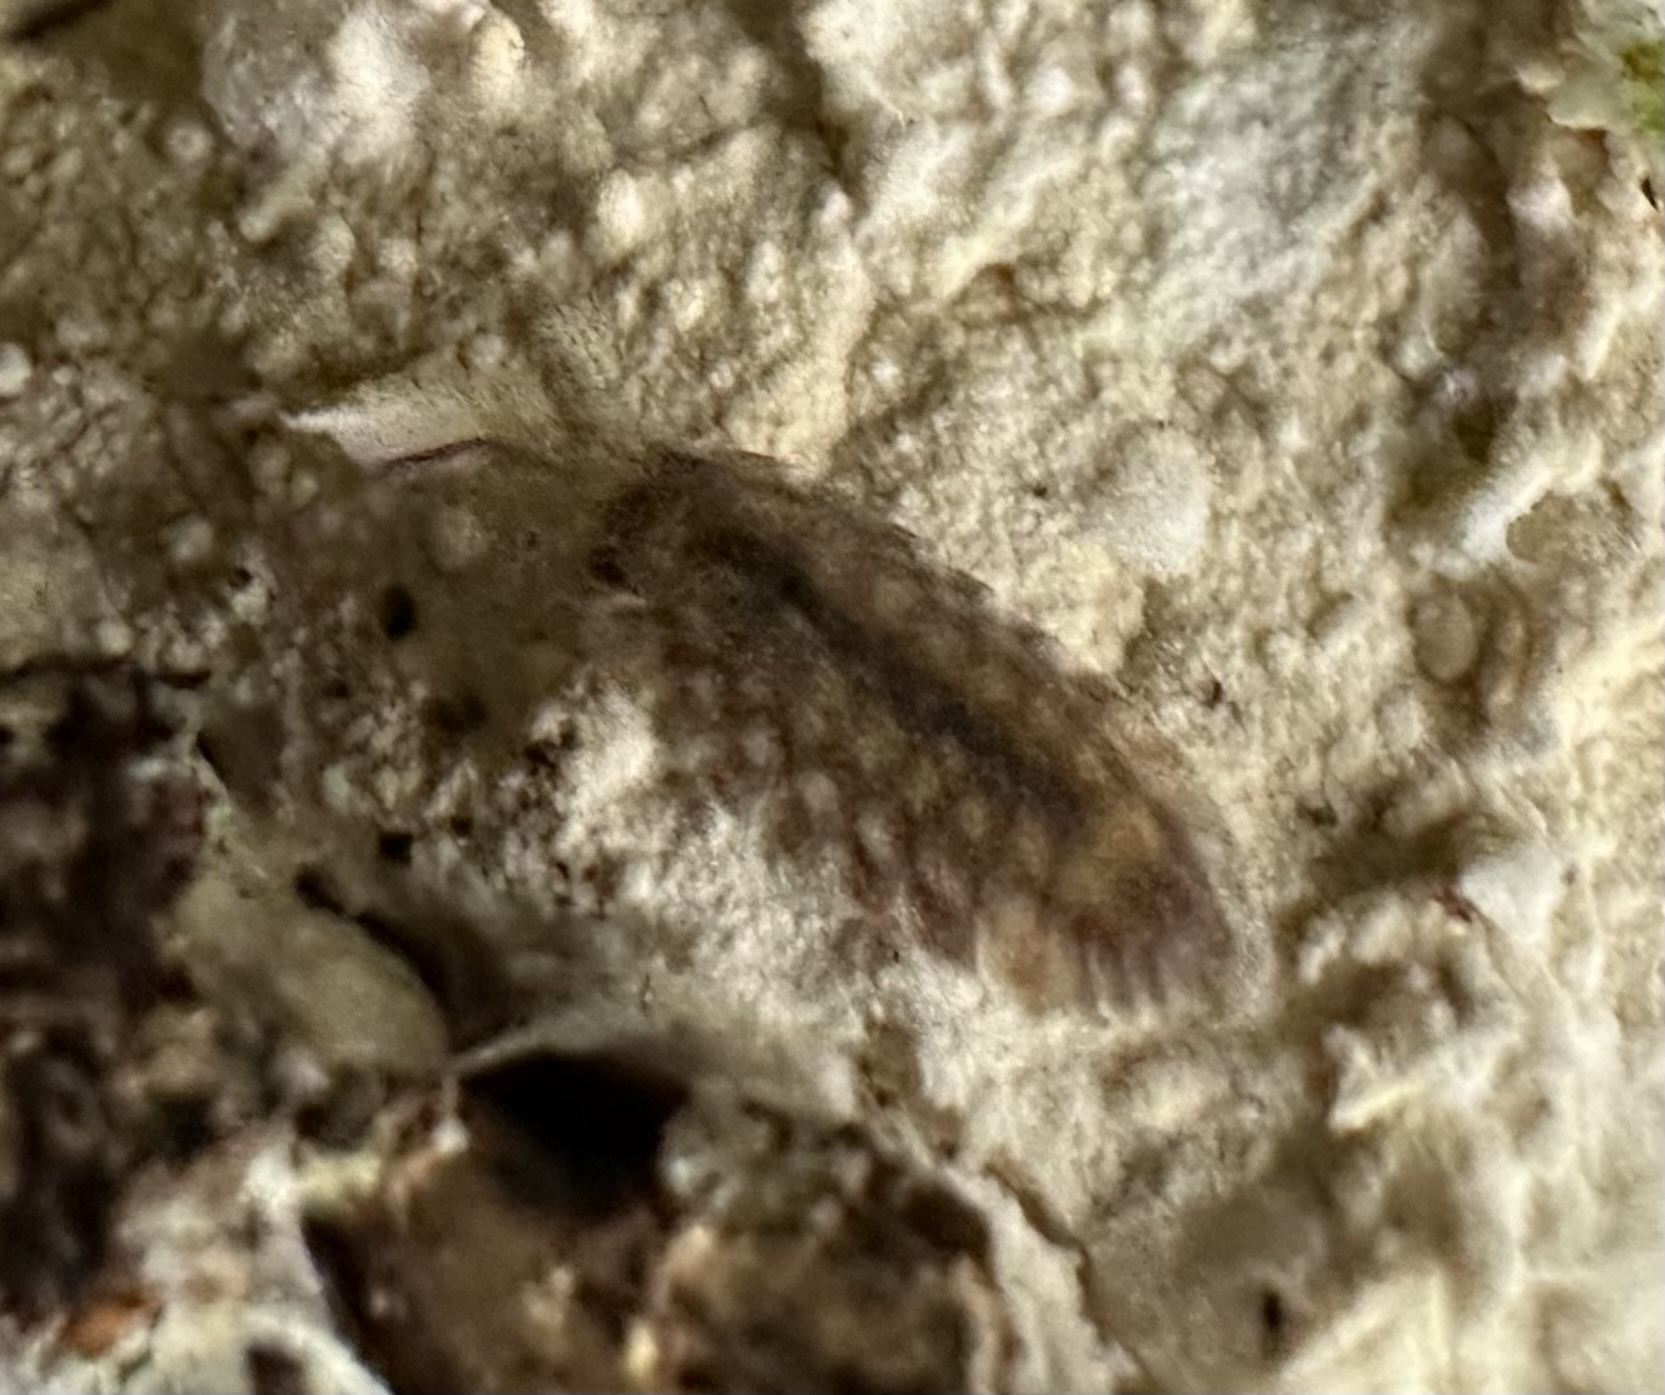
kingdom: Animalia
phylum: Arthropoda
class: Malacostraca
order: Isopoda
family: Oniscidae
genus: Oniscus
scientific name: Oniscus asellus
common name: Common shiny woodlouse
